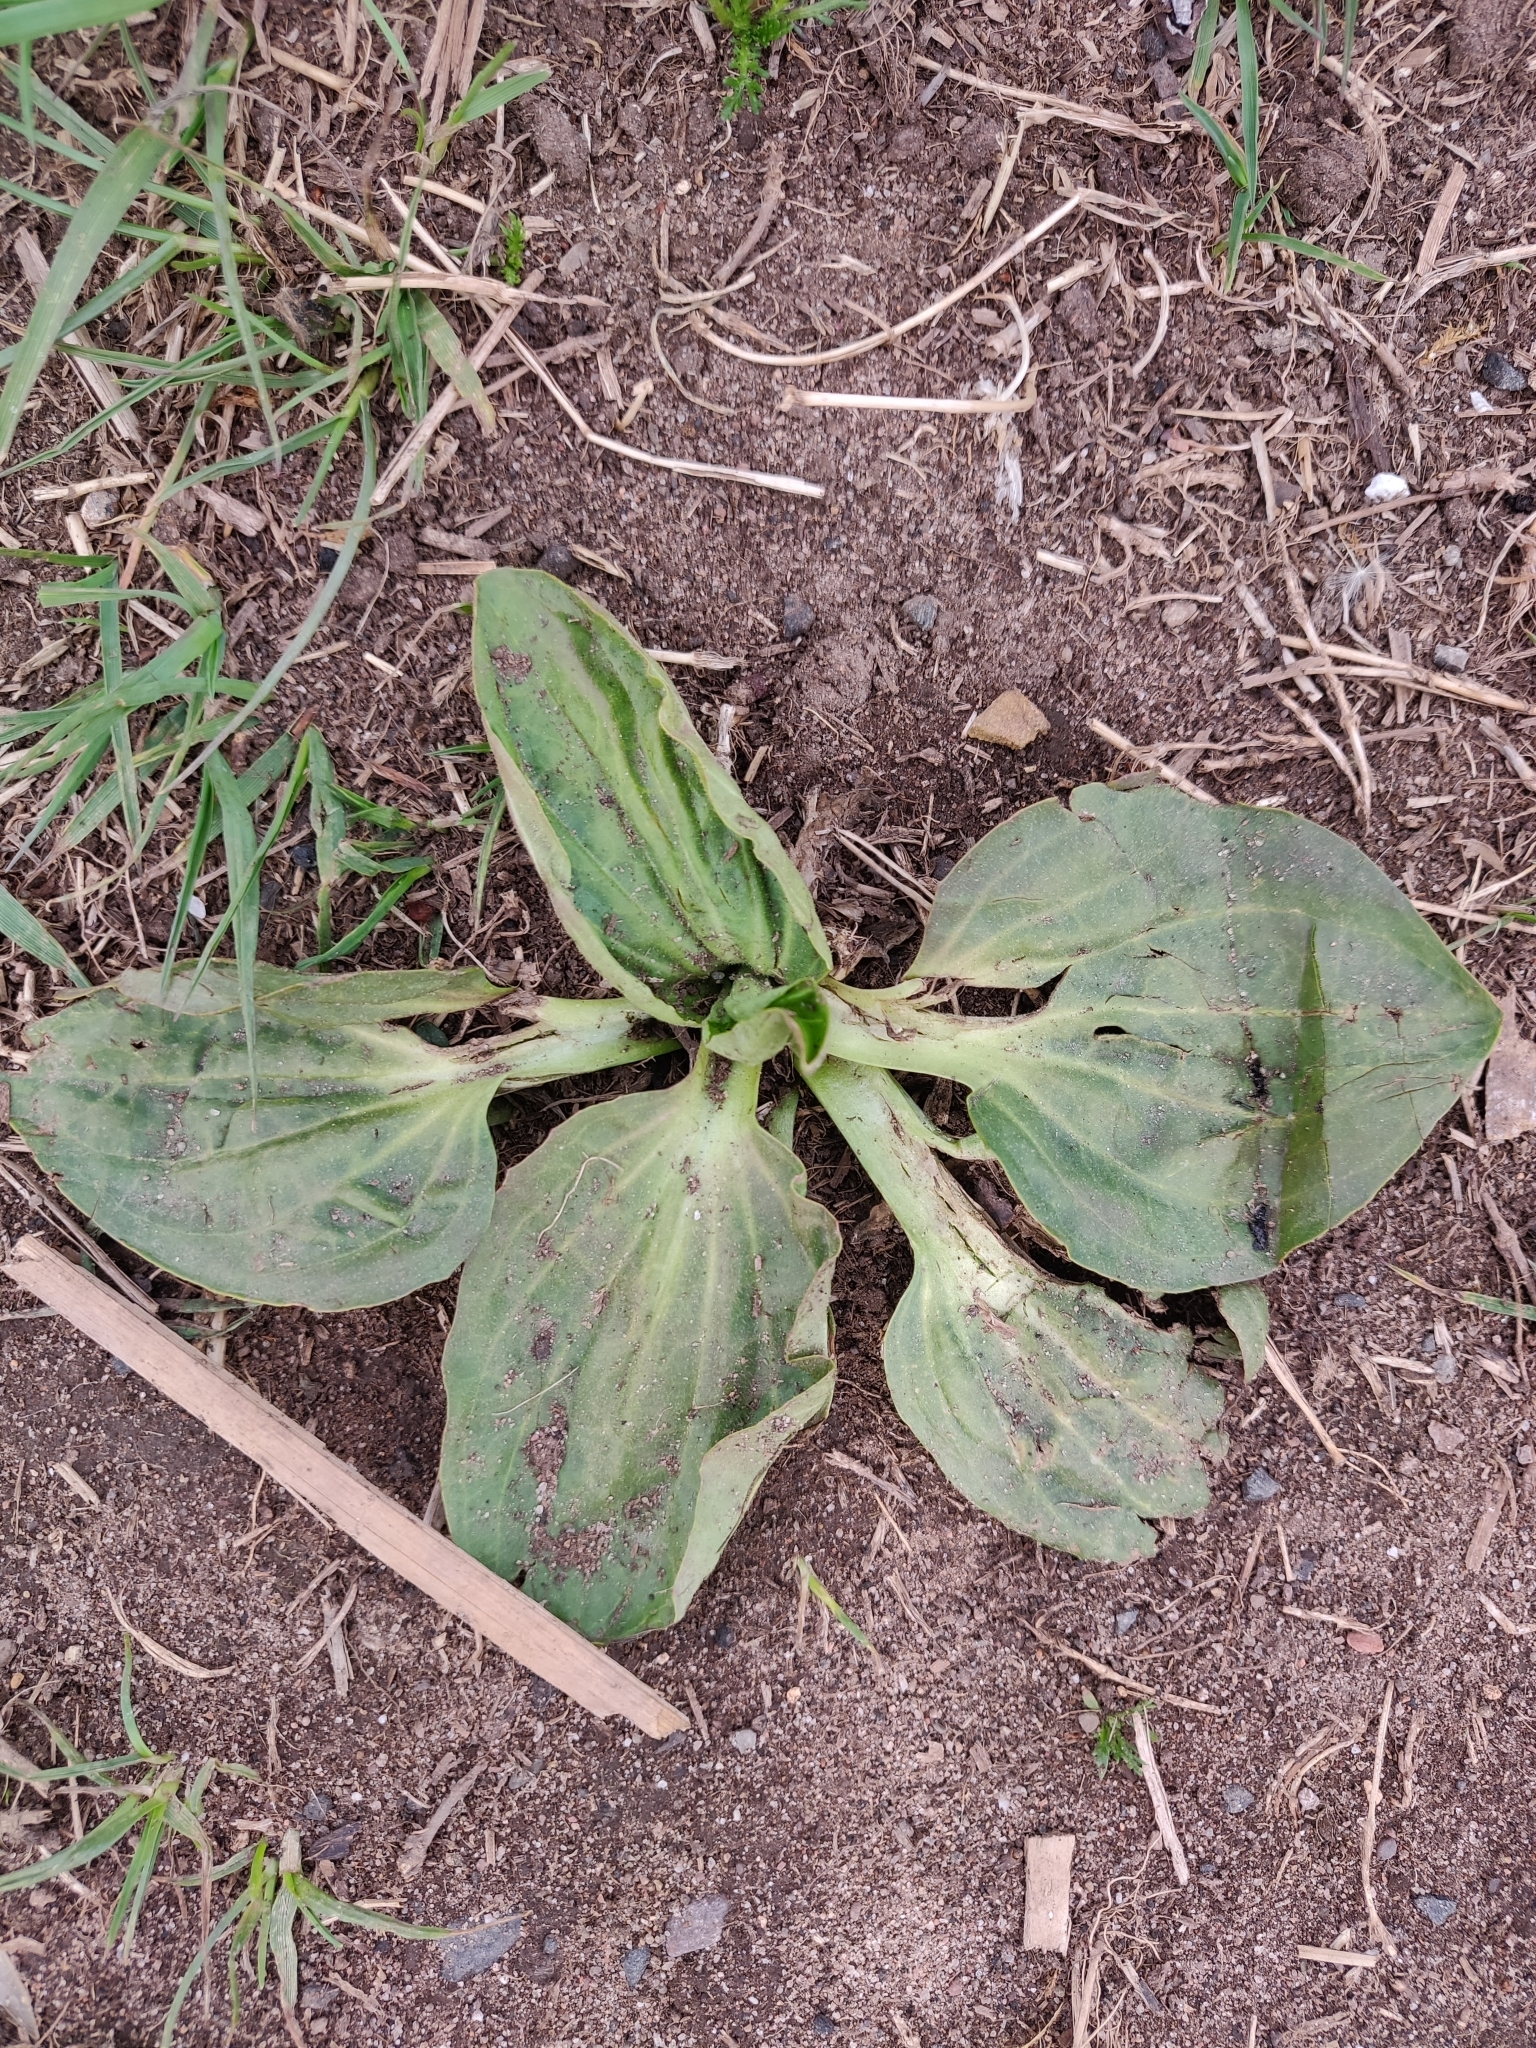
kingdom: Plantae
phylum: Tracheophyta
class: Magnoliopsida
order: Lamiales
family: Plantaginaceae
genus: Plantago
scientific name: Plantago major
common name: Common plantain
